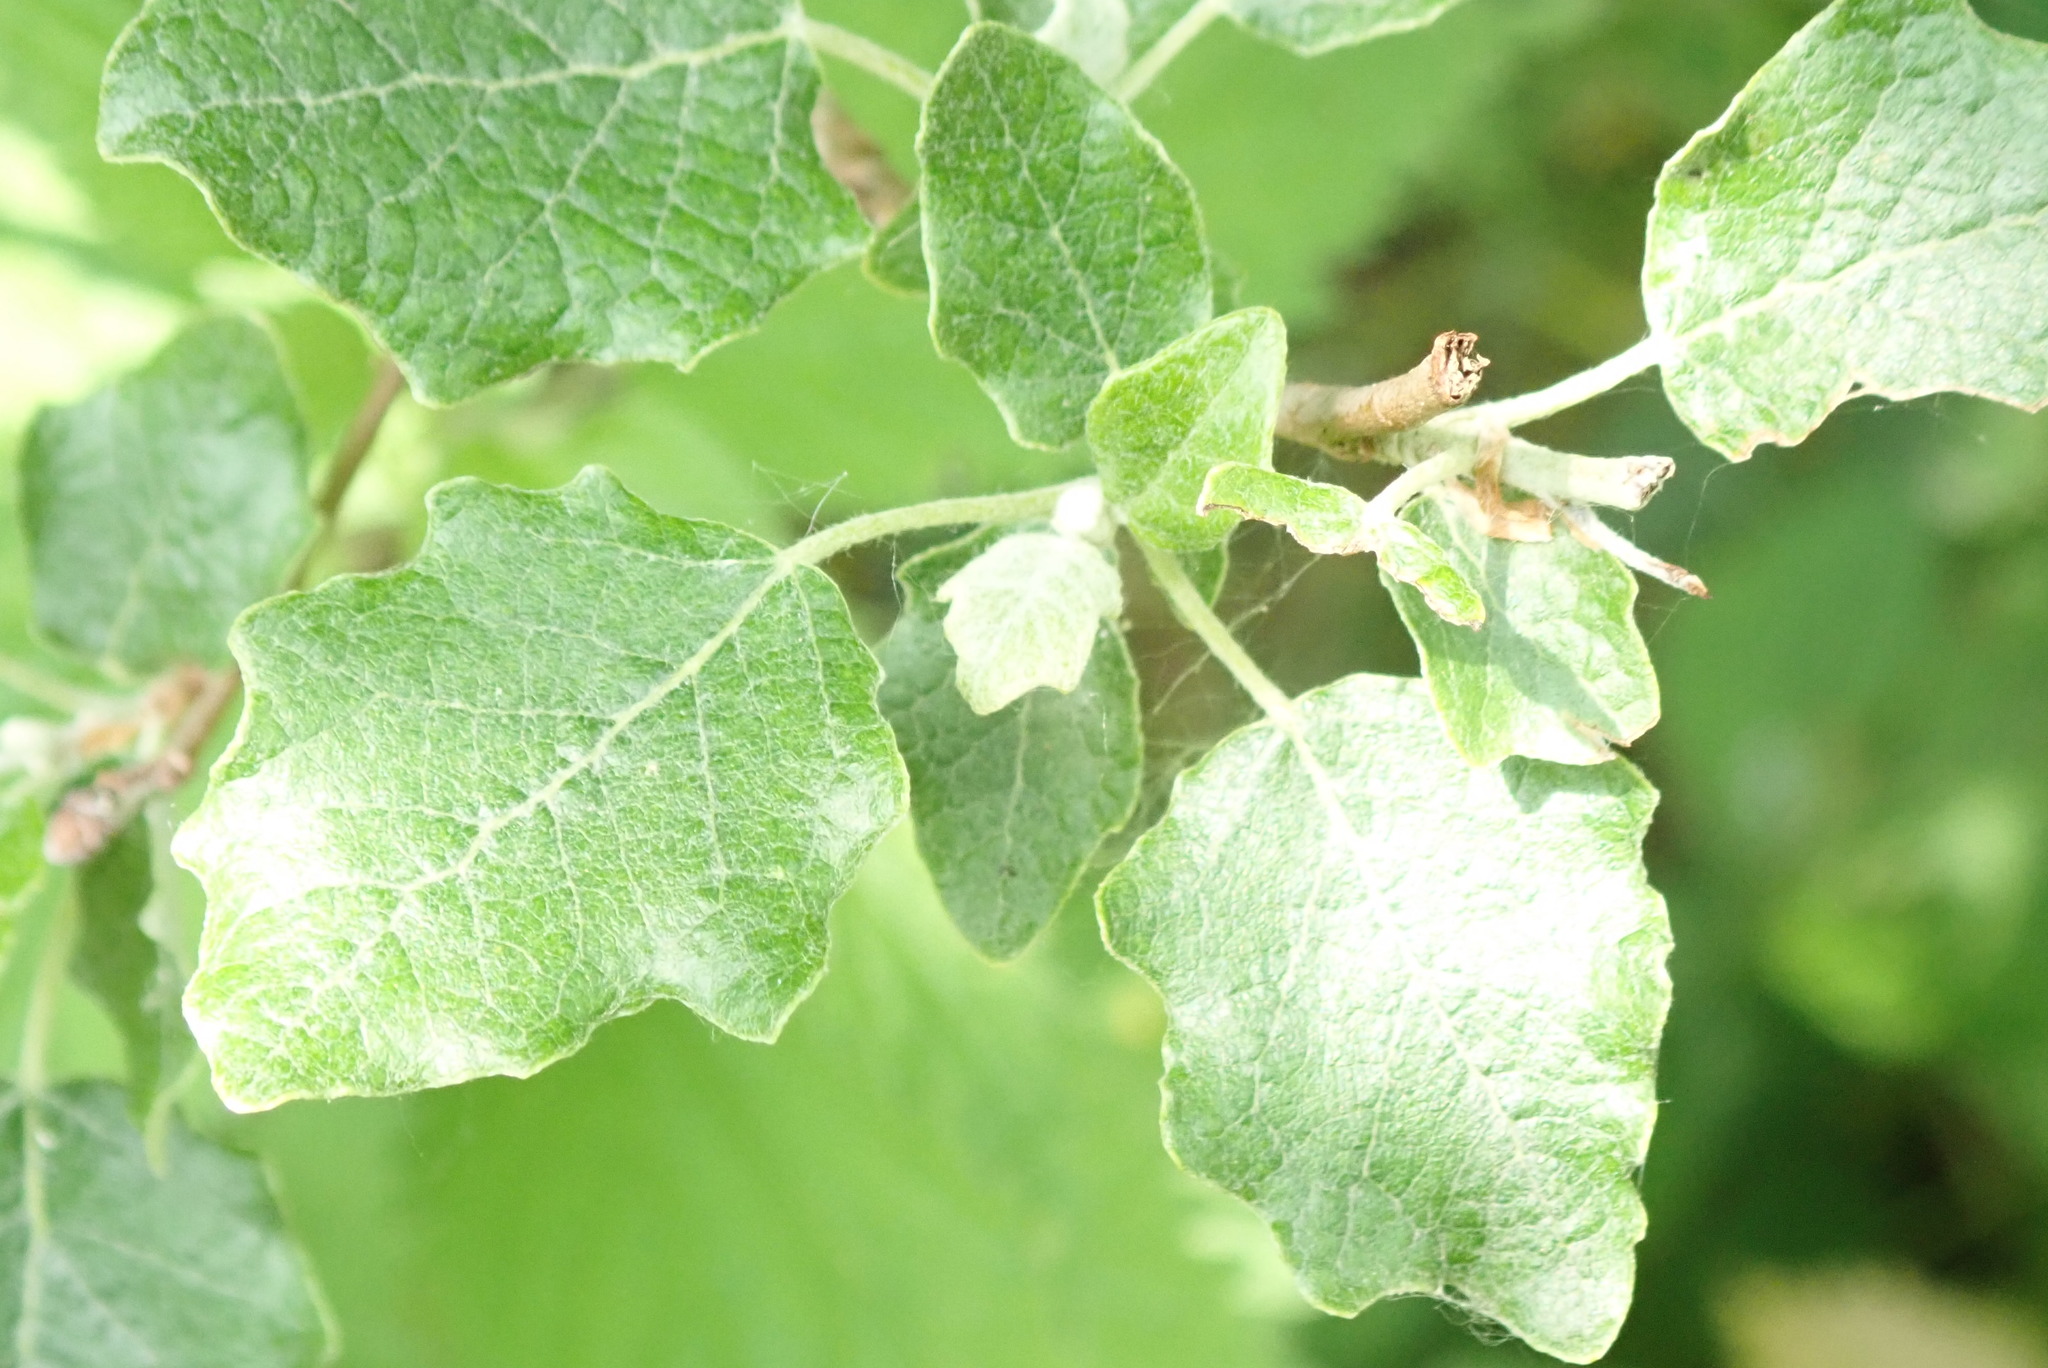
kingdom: Plantae
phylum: Tracheophyta
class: Magnoliopsida
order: Malpighiales
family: Salicaceae
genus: Populus
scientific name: Populus alba
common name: White poplar
